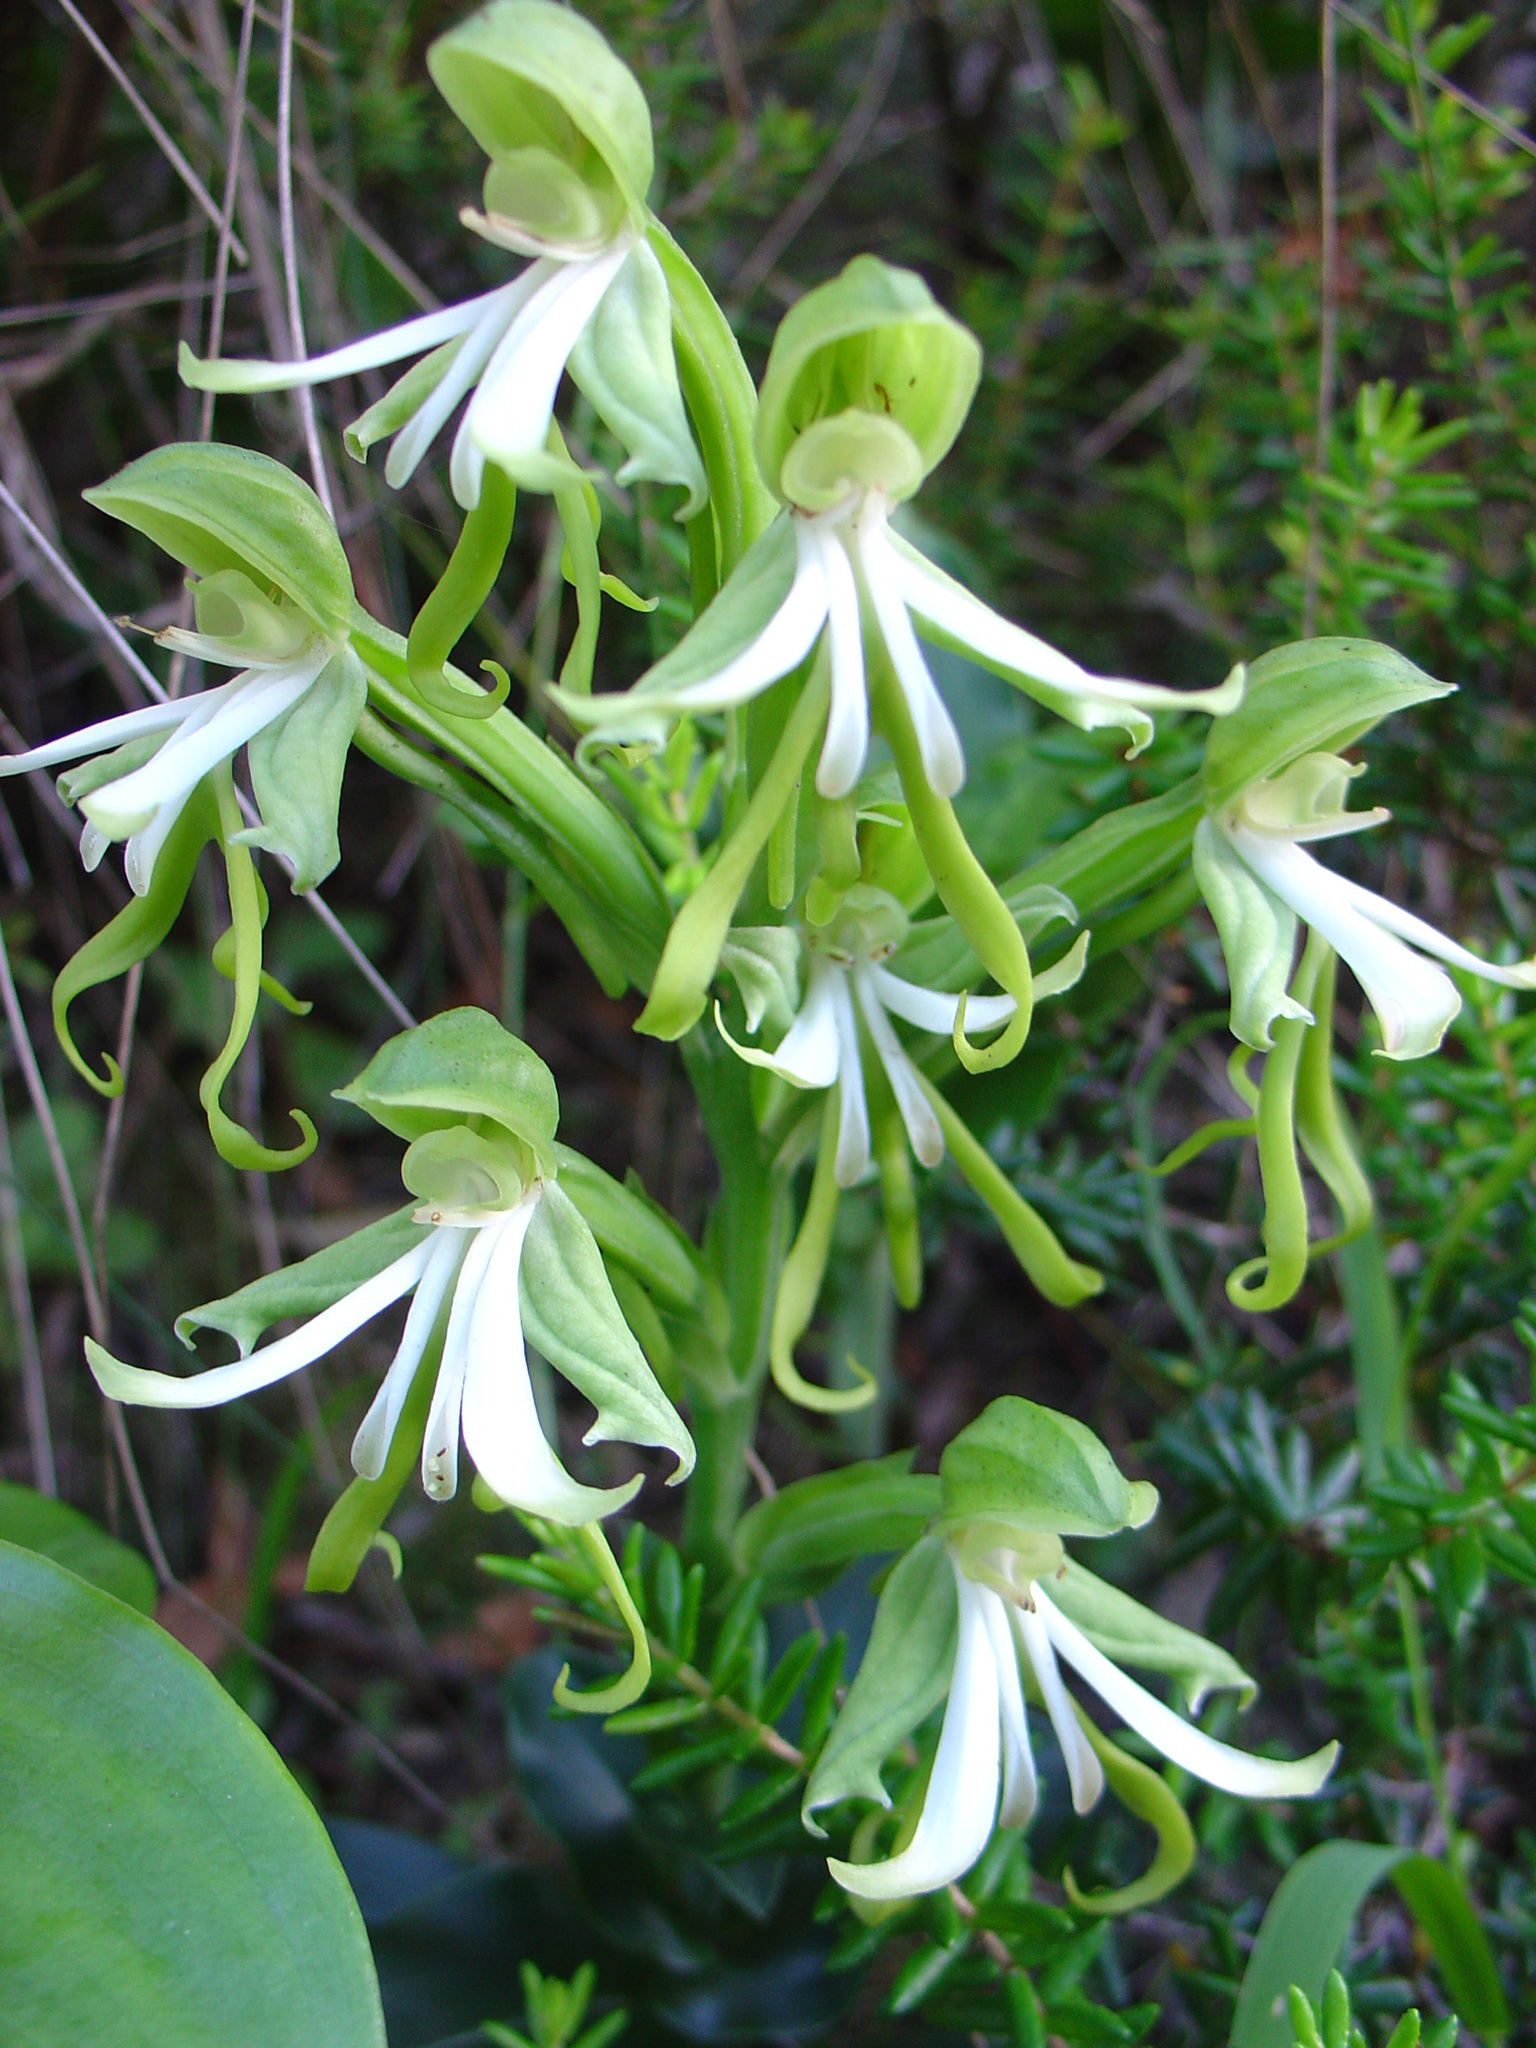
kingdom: Plantae
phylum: Tracheophyta
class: Liliopsida
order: Asparagales
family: Orchidaceae
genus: Bonatea
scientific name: Bonatea speciosa
